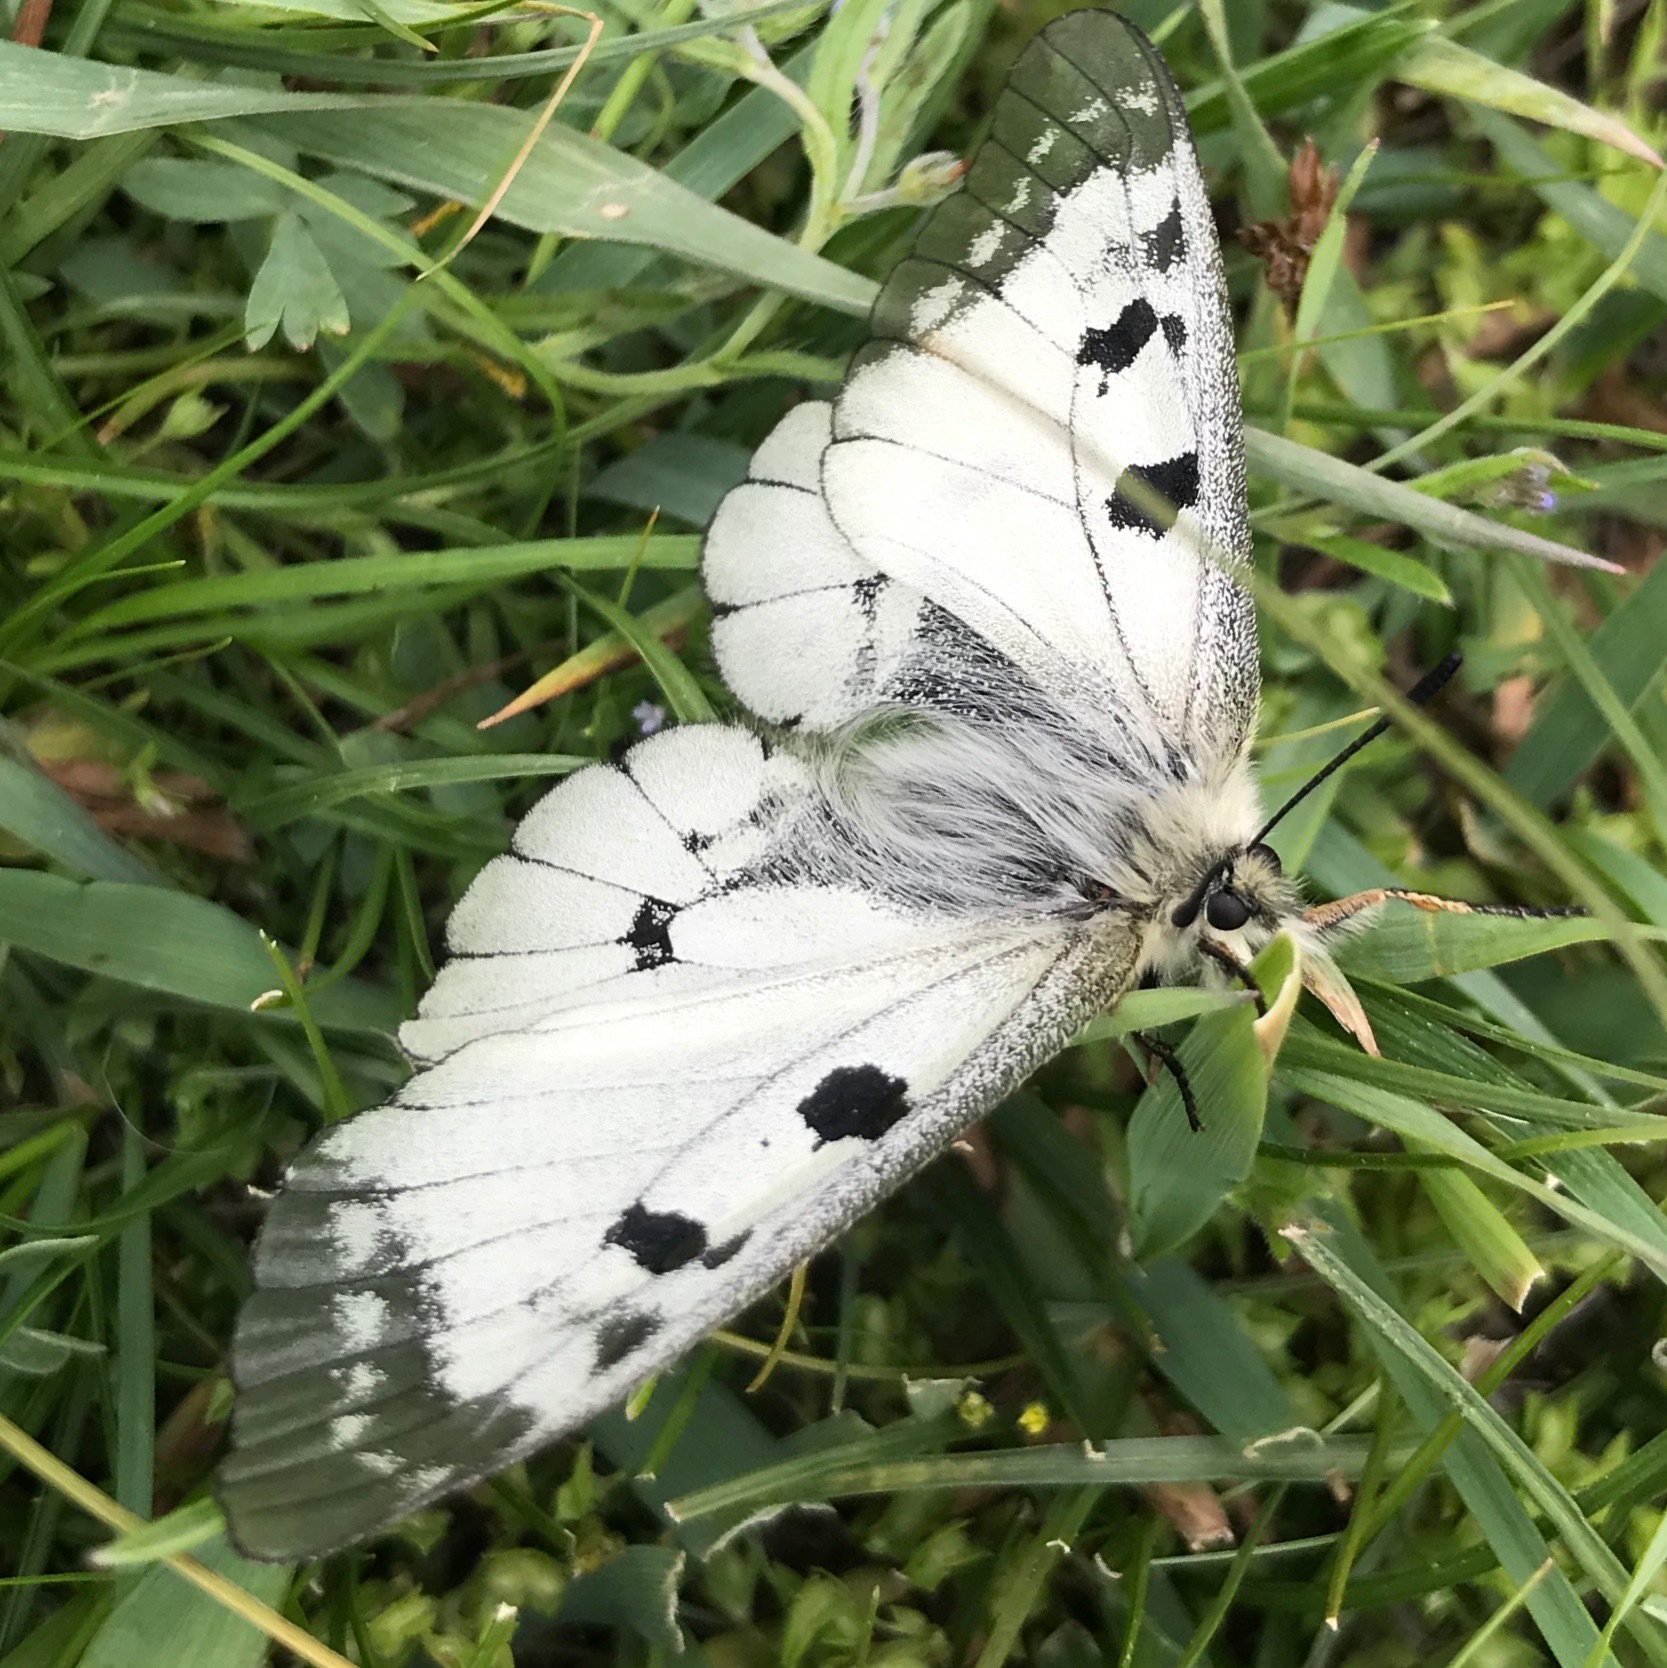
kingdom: Animalia
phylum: Arthropoda
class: Insecta
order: Lepidoptera
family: Papilionidae
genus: Parnassius
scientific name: Parnassius mnemosyne
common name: Clouded apollo
